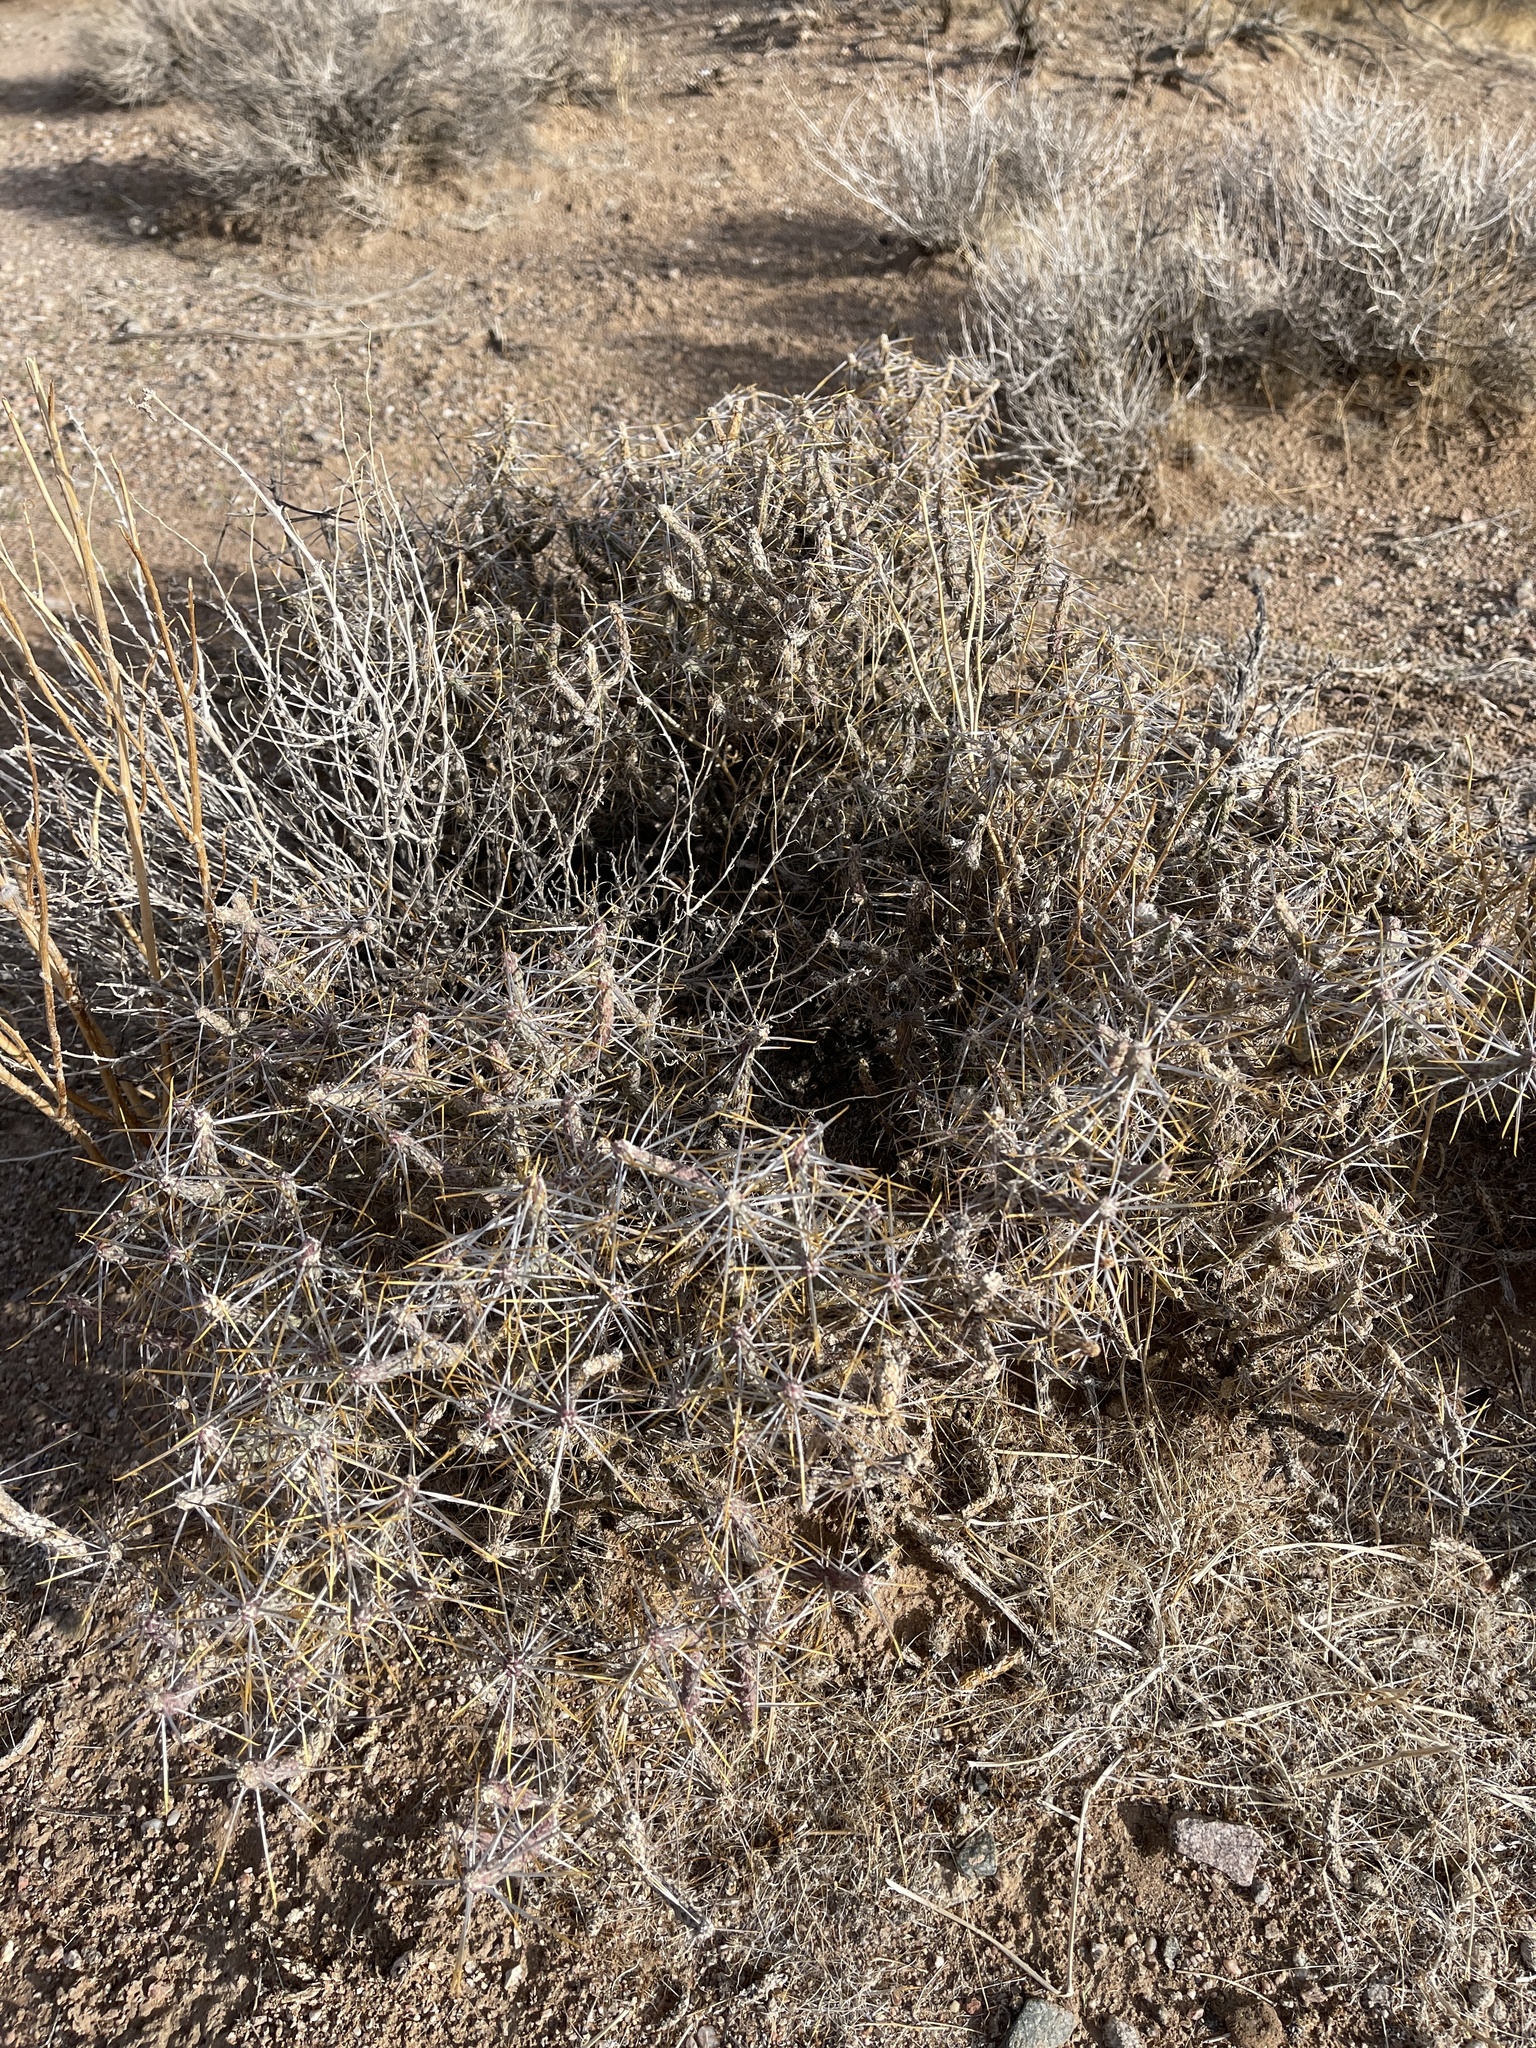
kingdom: Plantae
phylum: Tracheophyta
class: Magnoliopsida
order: Caryophyllales
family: Cactaceae
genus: Cylindropuntia
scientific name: Cylindropuntia ramosissima
